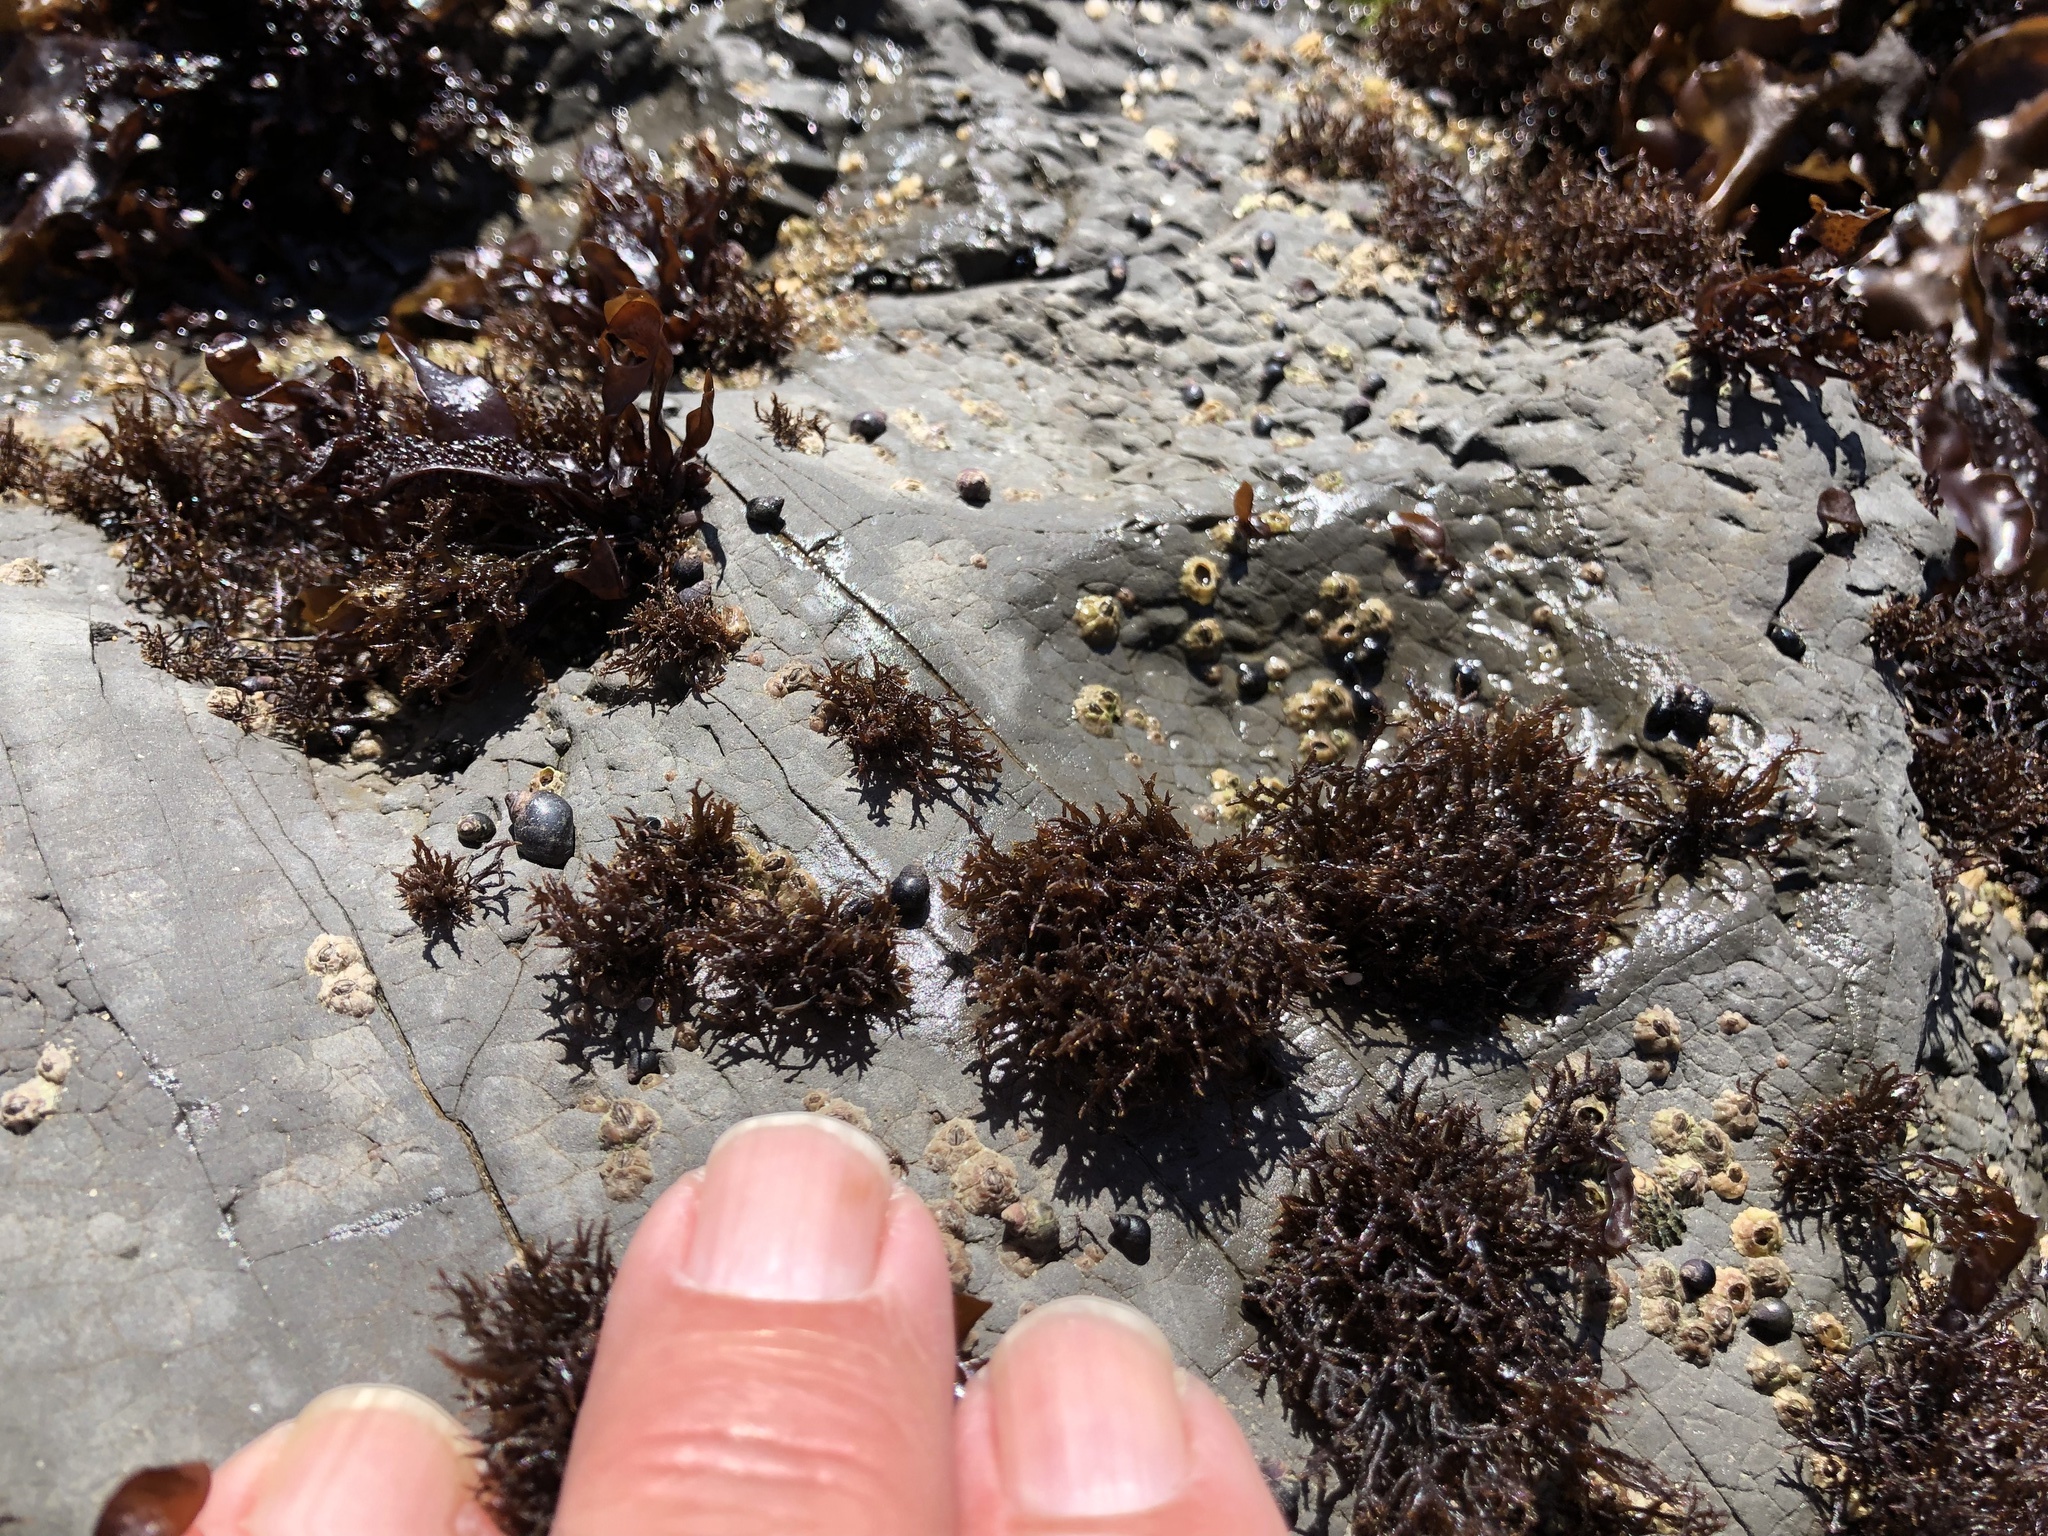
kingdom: Plantae
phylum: Rhodophyta
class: Florideophyceae
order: Gigartinales
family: Endocladiaceae
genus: Endocladia
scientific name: Endocladia muricata
